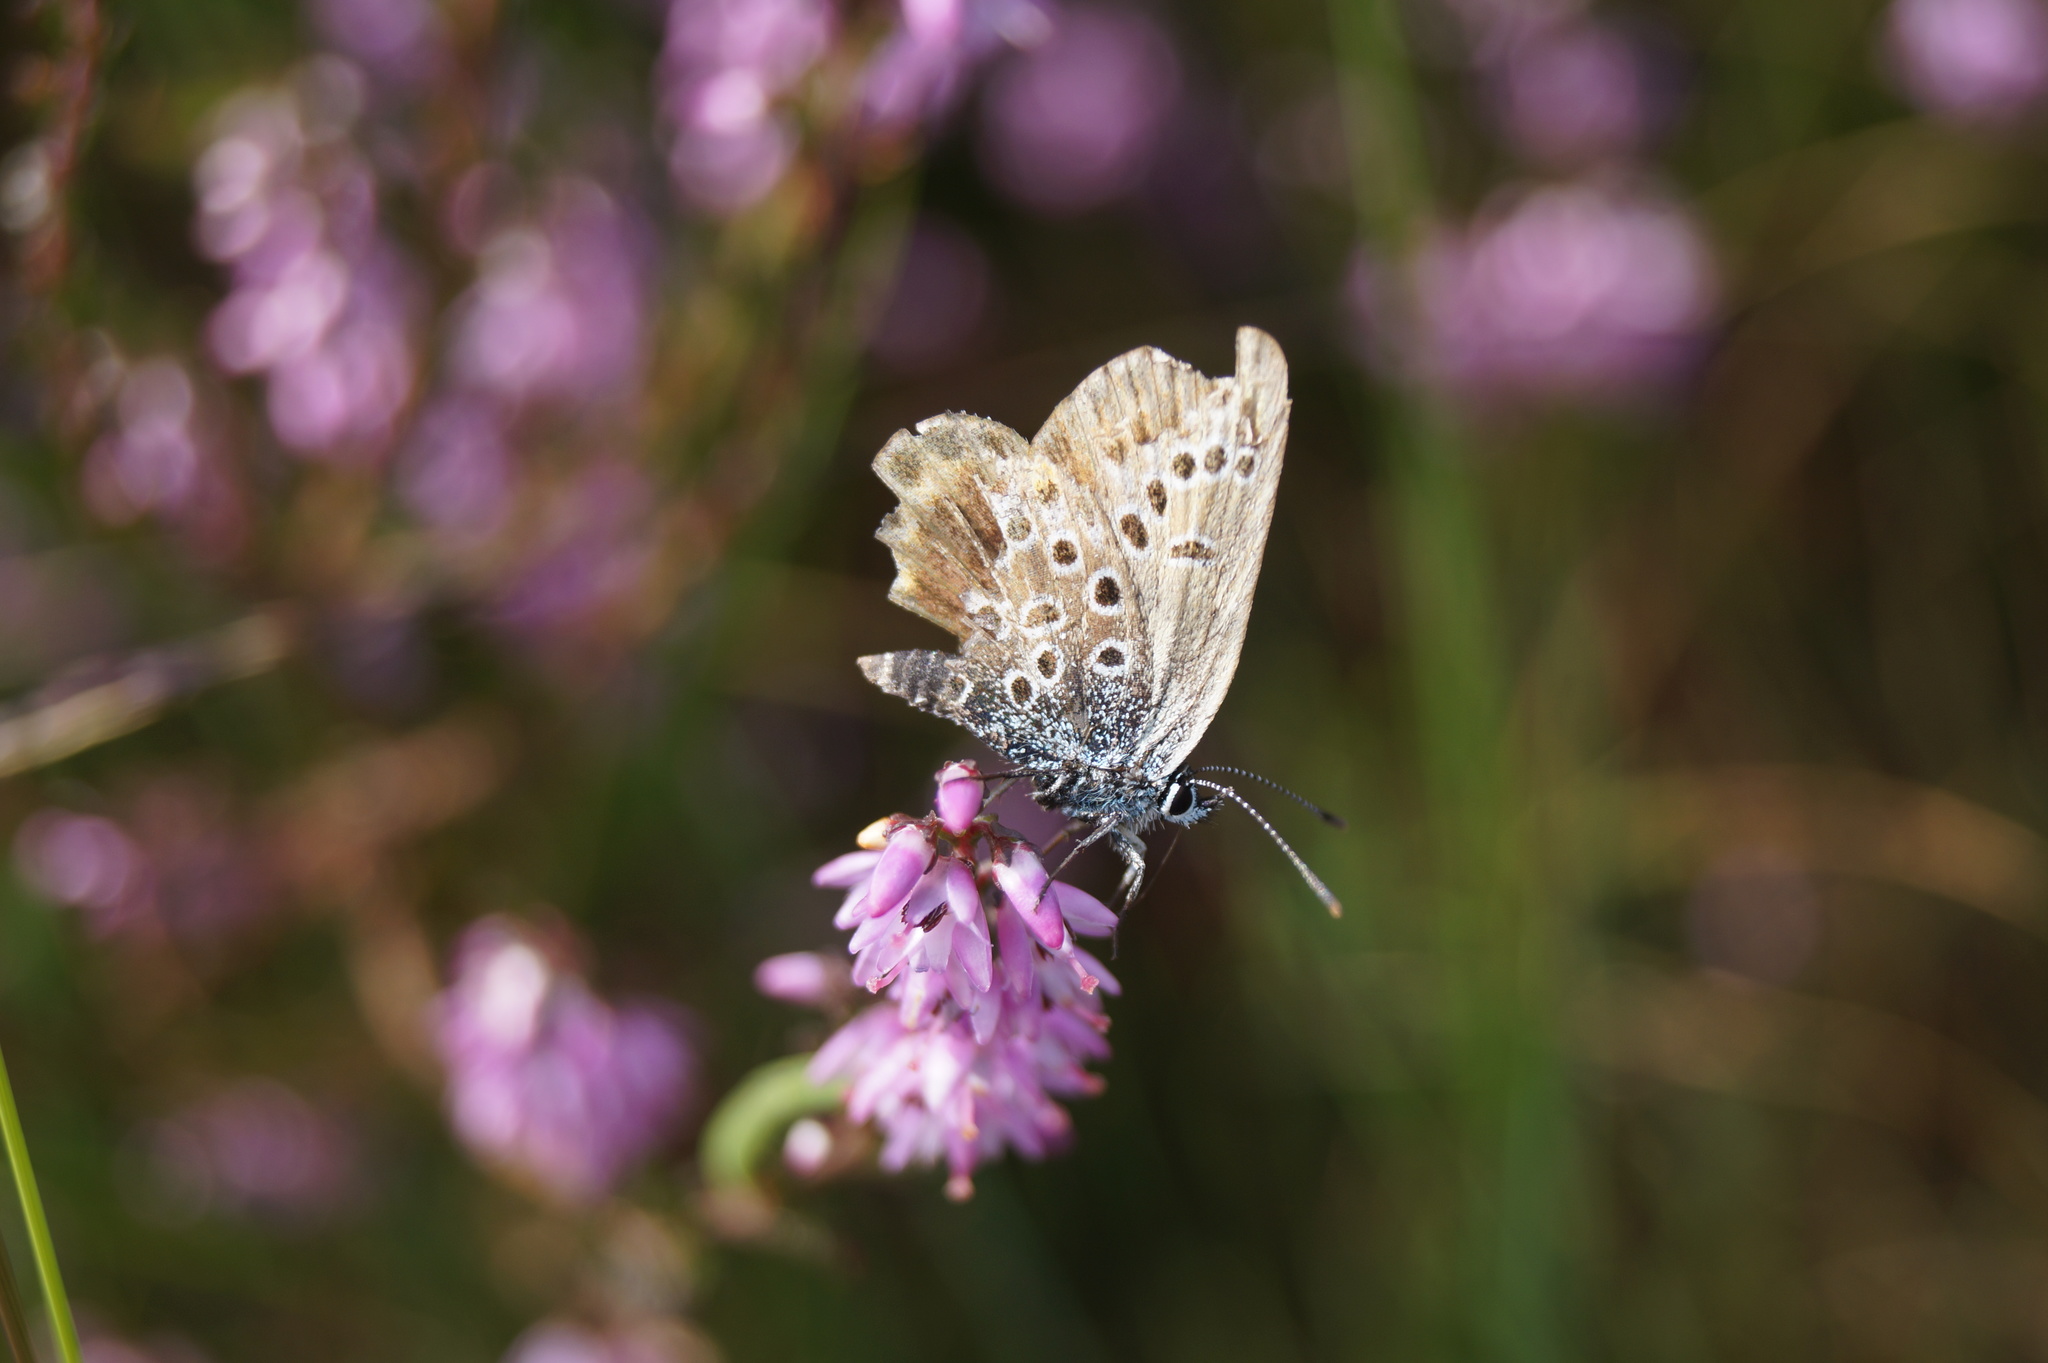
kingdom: Animalia
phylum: Arthropoda
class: Insecta
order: Lepidoptera
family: Lycaenidae
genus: Plebejus
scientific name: Plebejus argus
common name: Silver-studded blue
